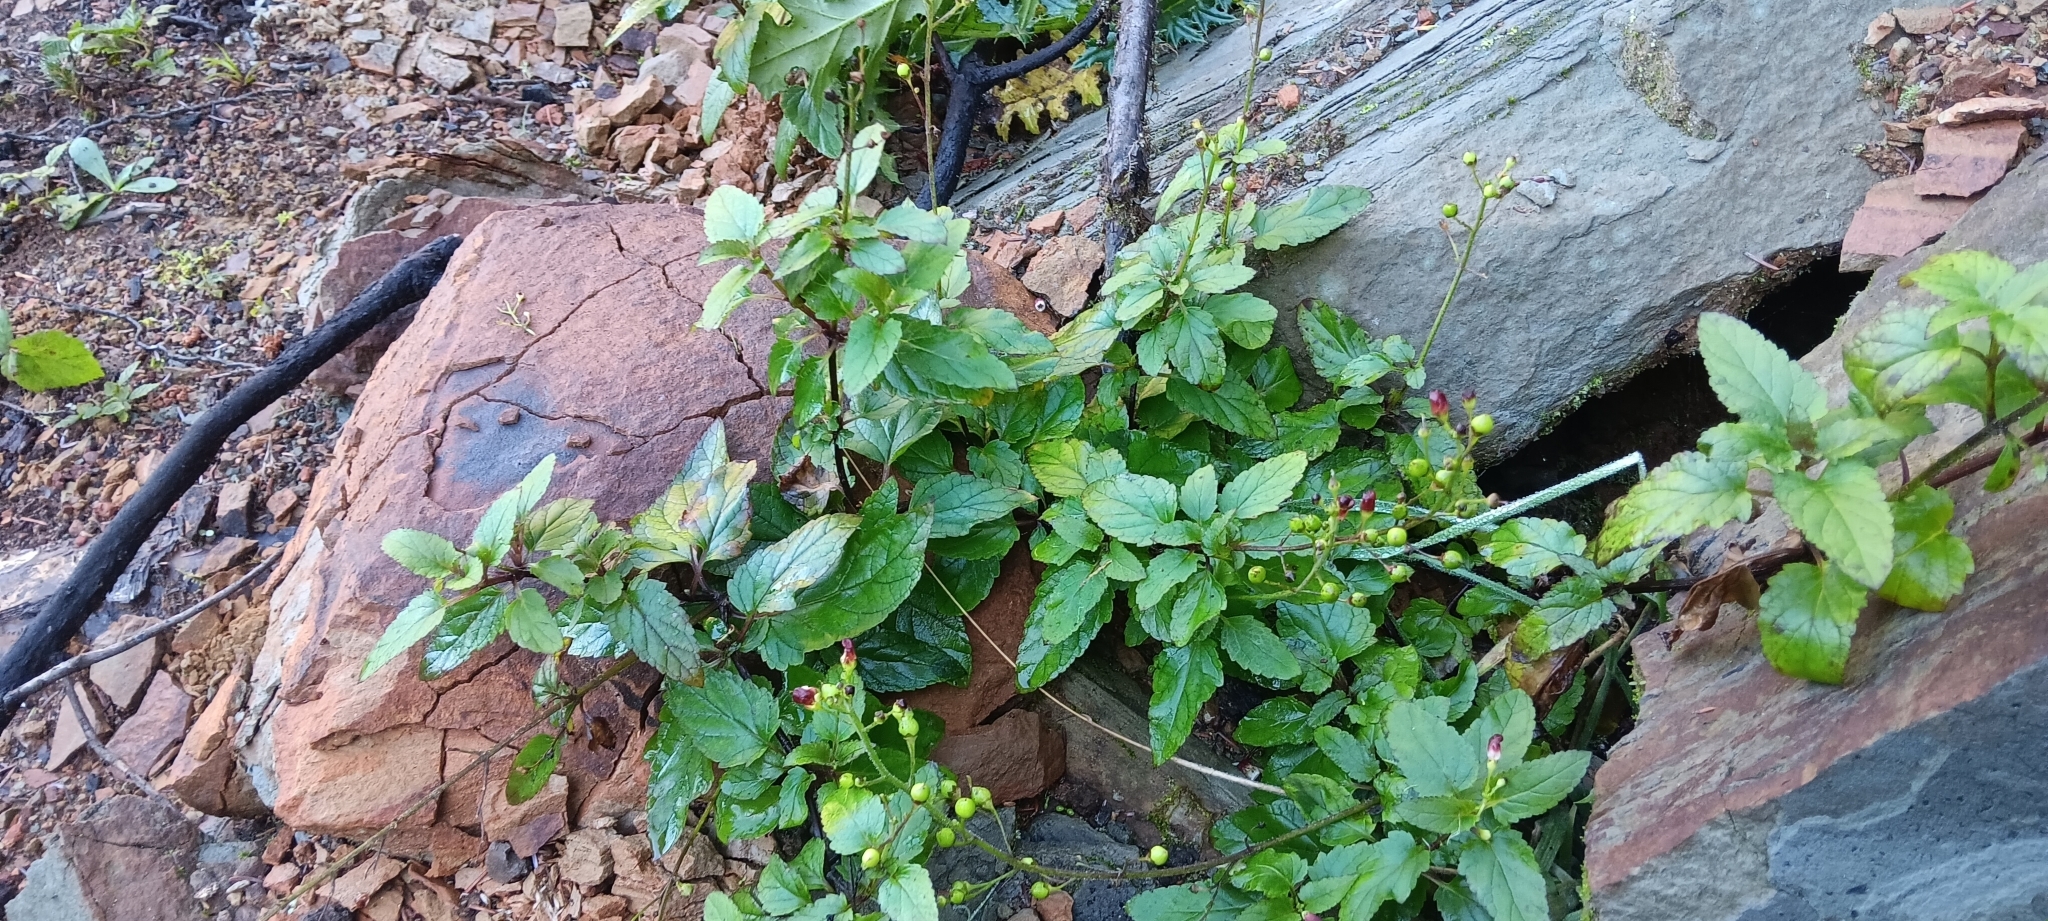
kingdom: Plantae
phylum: Tracheophyta
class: Magnoliopsida
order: Lamiales
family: Scrophulariaceae
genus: Scrophularia
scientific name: Scrophularia californica
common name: California figwort
